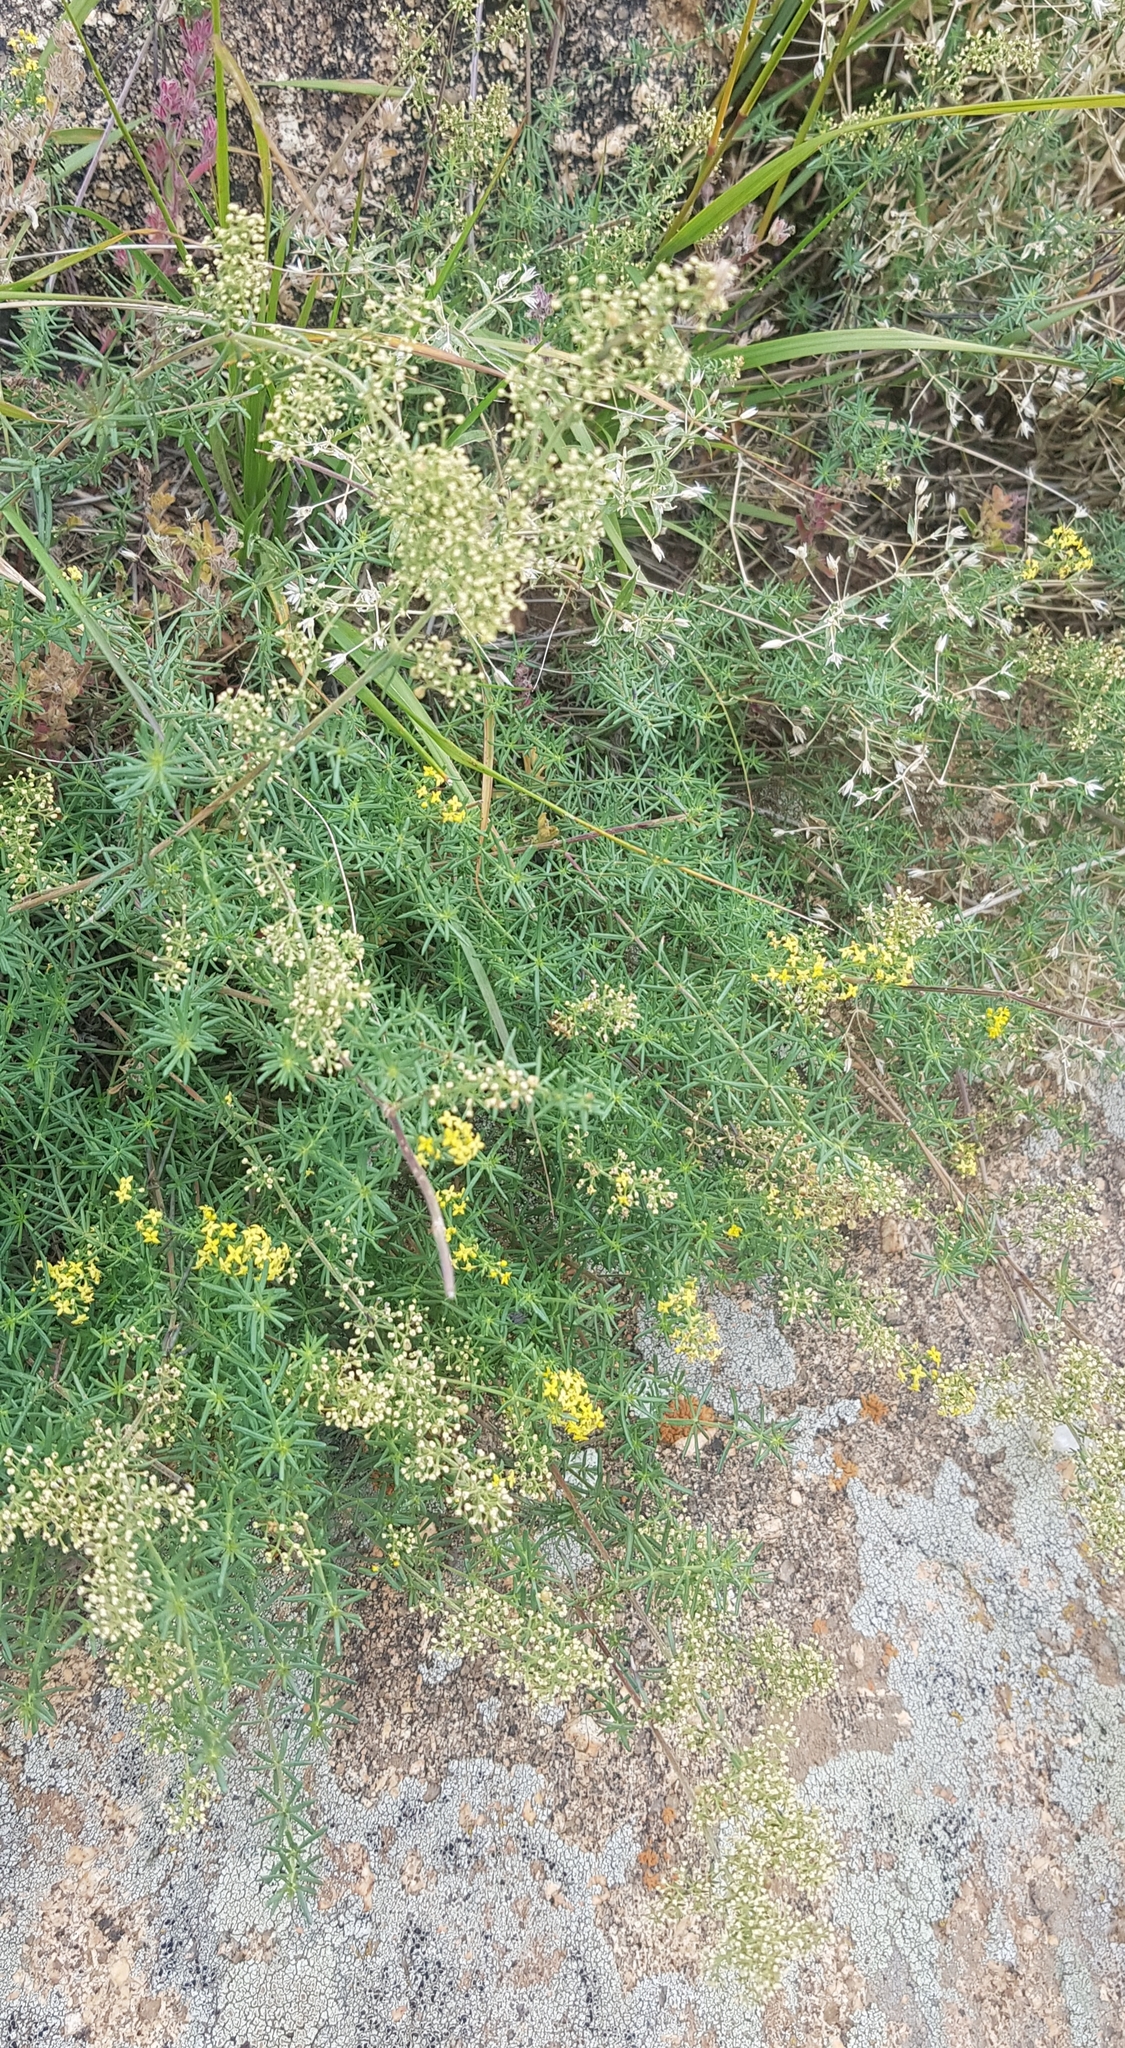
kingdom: Plantae
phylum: Tracheophyta
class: Magnoliopsida
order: Gentianales
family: Rubiaceae
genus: Galium
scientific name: Galium verum
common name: Lady's bedstraw
